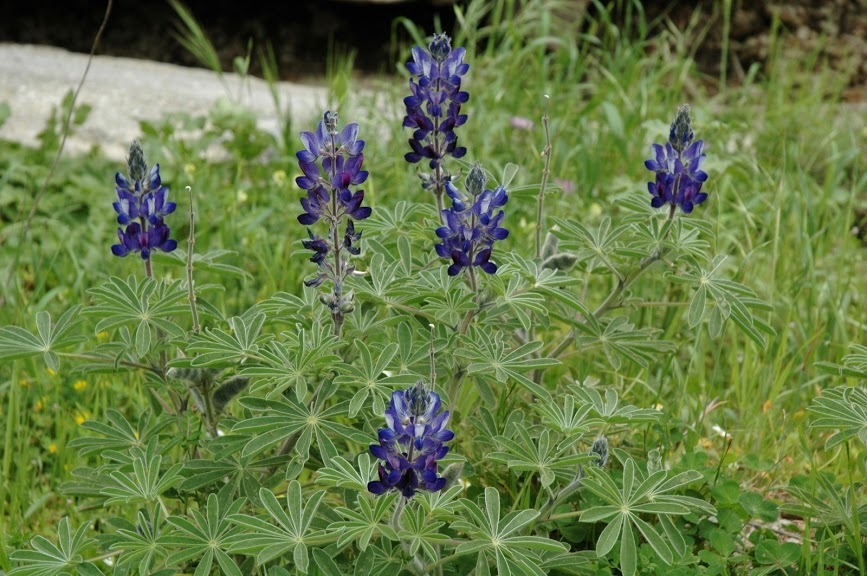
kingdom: Plantae
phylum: Tracheophyta
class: Magnoliopsida
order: Fabales
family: Fabaceae
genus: Lupinus
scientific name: Lupinus pilosus
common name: Blue lupine
